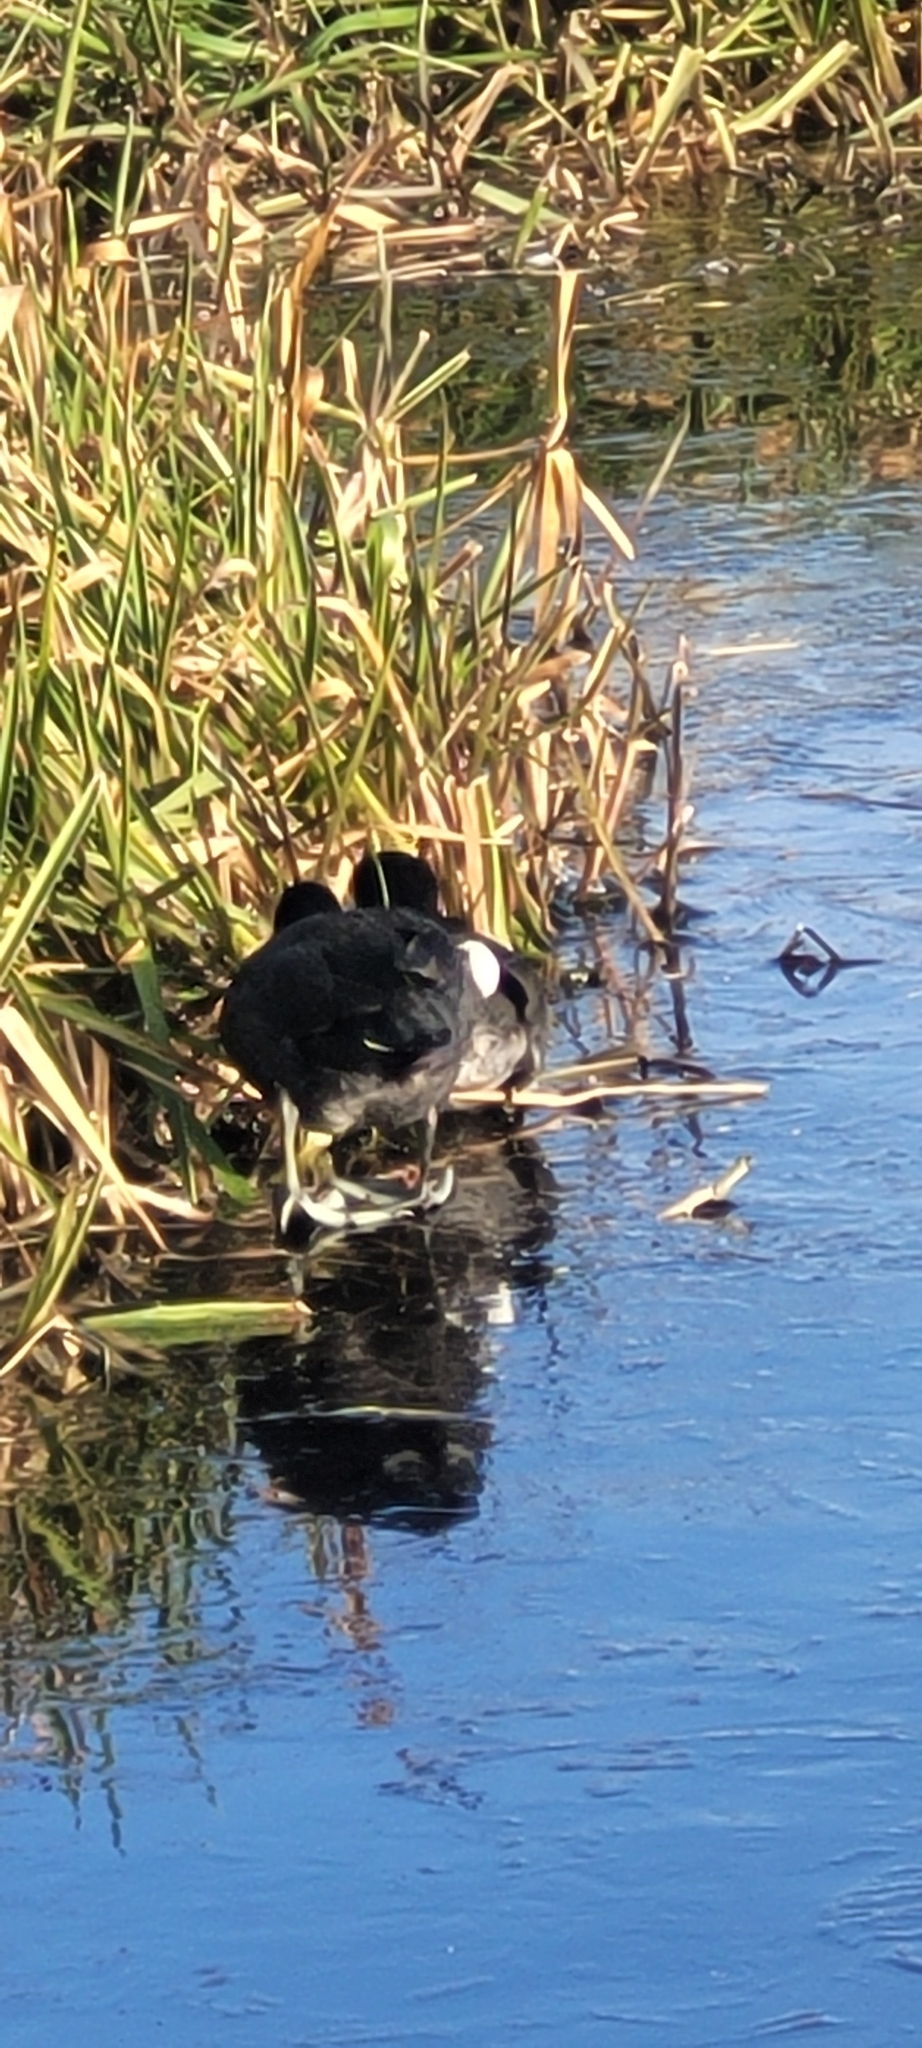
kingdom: Animalia
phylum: Chordata
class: Aves
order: Gruiformes
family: Rallidae
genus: Fulica
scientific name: Fulica americana
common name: American coot
